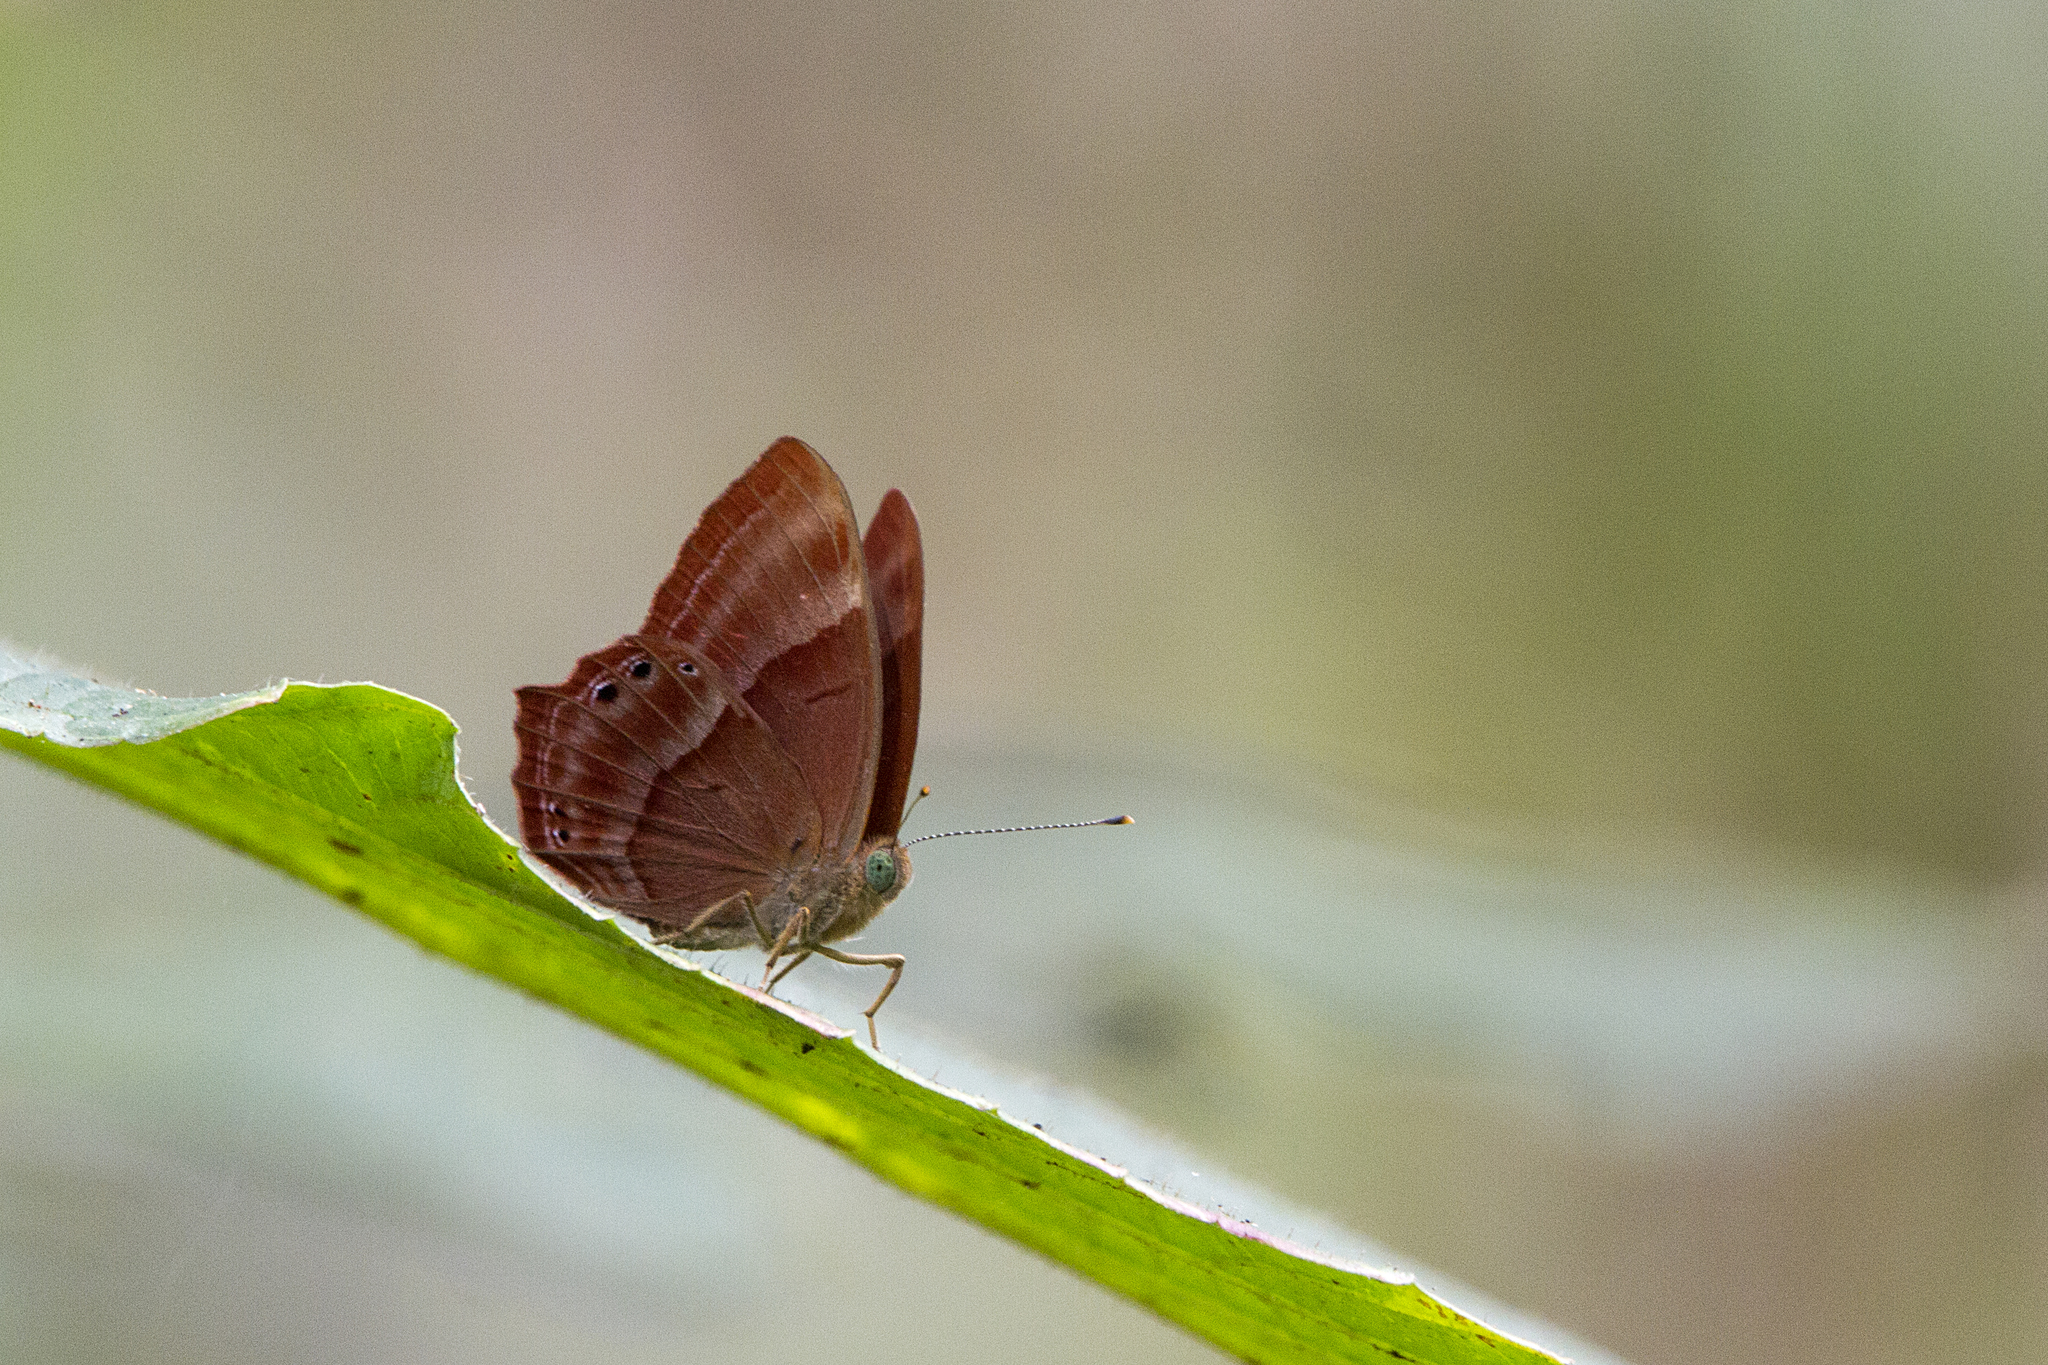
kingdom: Animalia
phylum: Arthropoda
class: Insecta
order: Lepidoptera
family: Lycaenidae
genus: Abisara
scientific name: Abisara bifasciata
